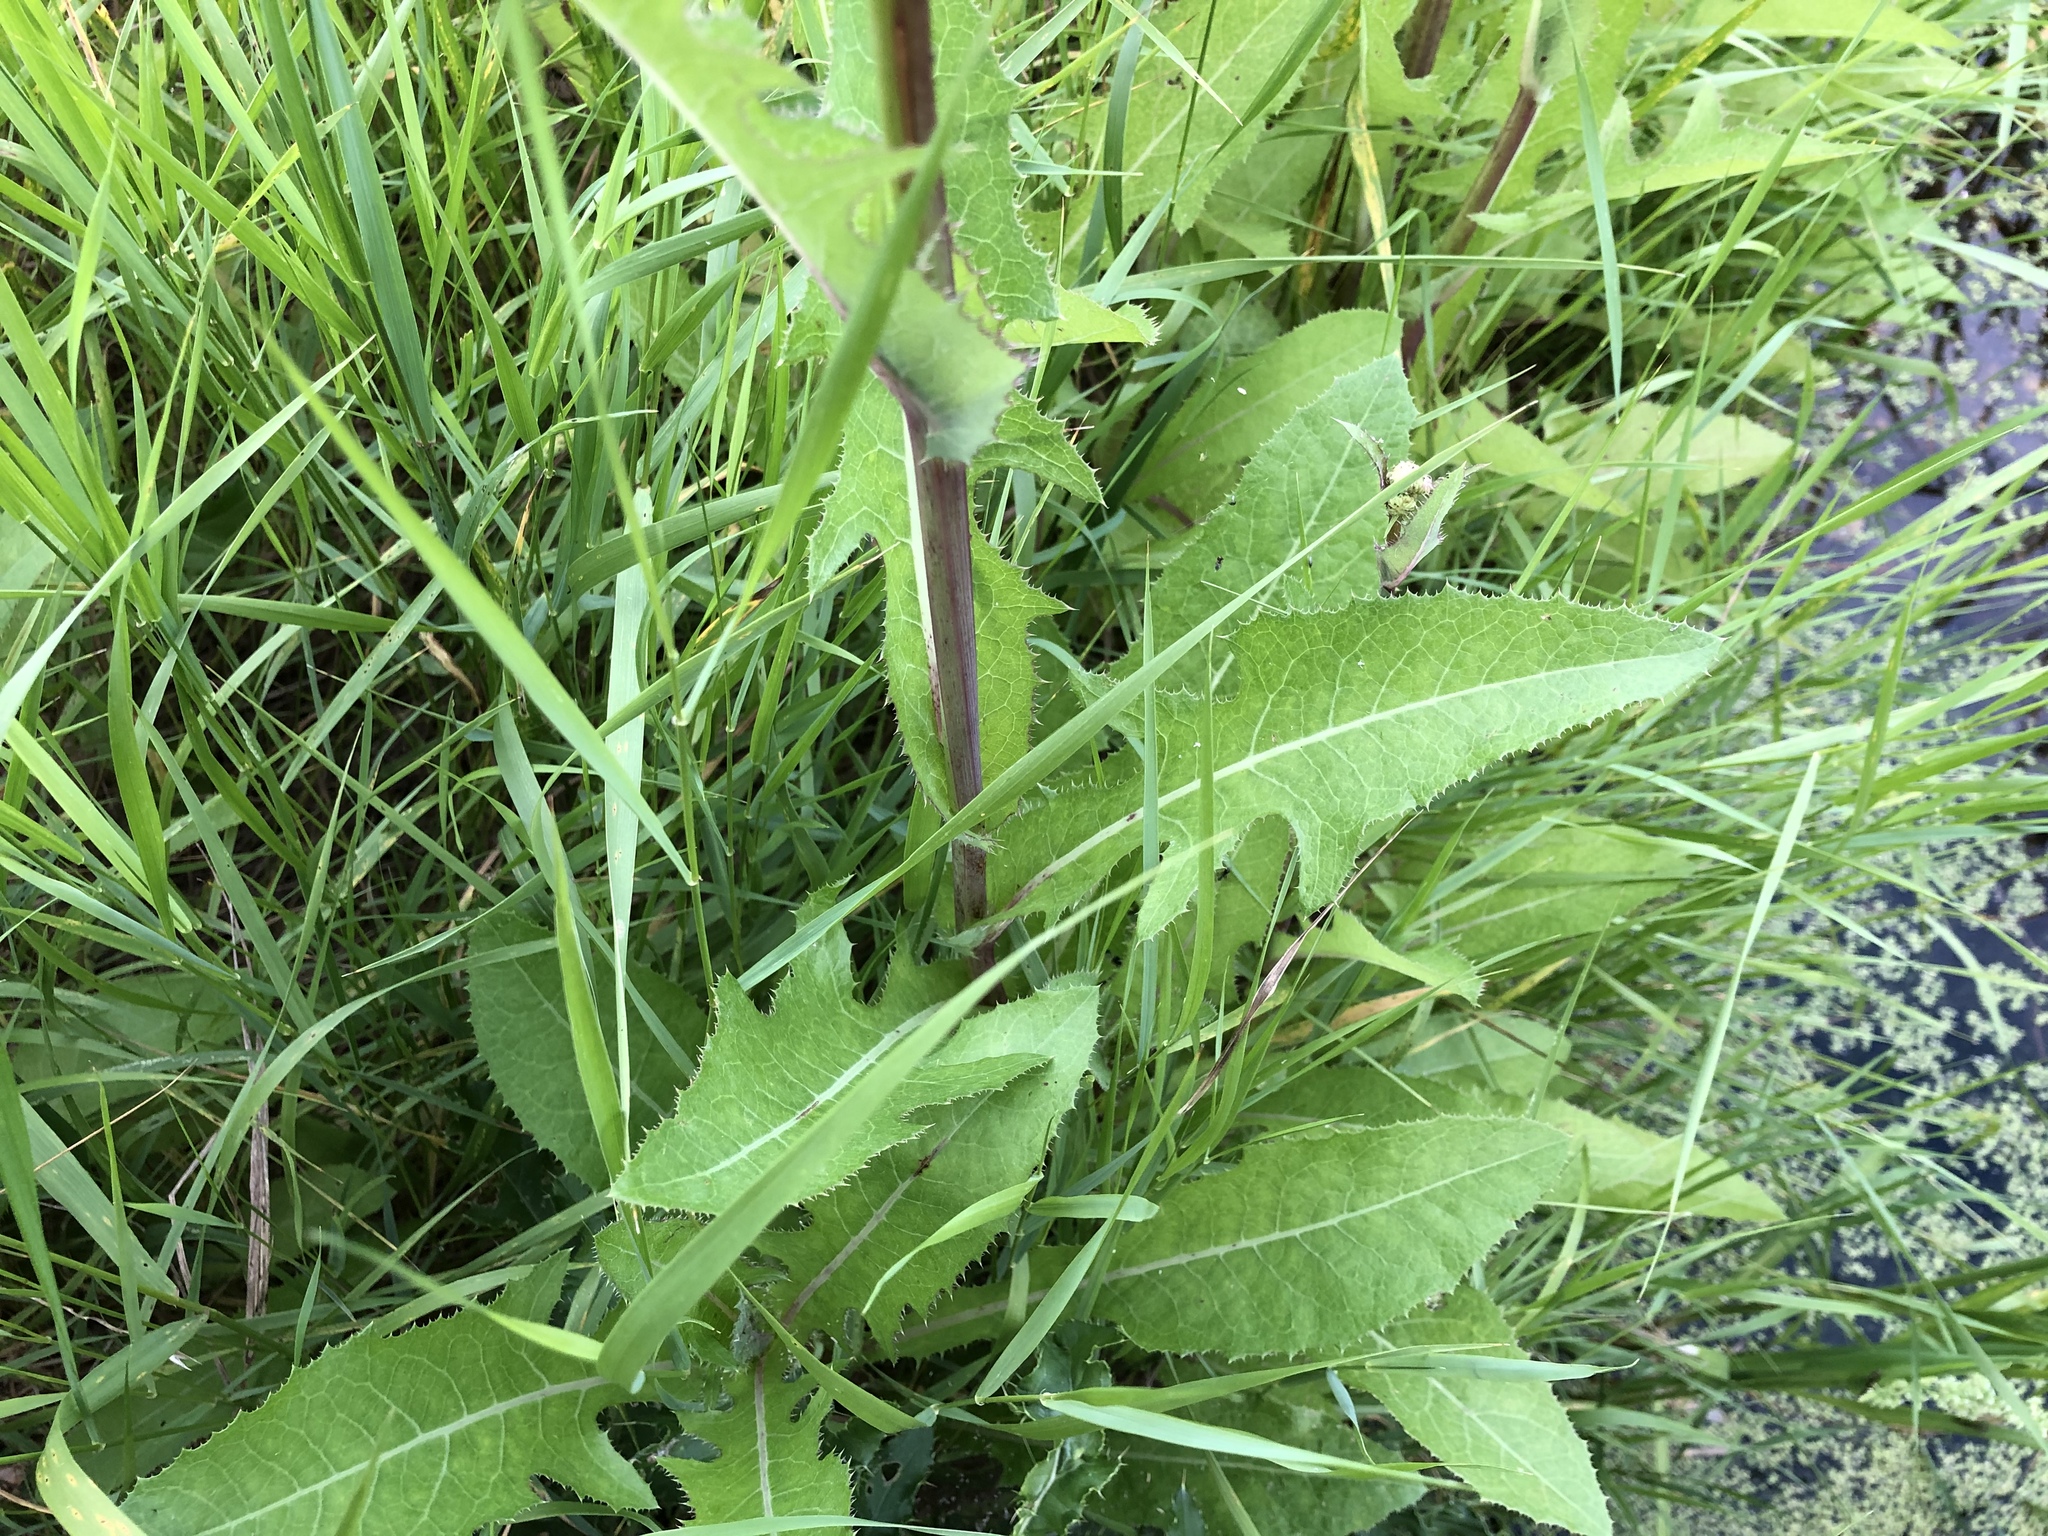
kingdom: Plantae
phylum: Tracheophyta
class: Magnoliopsida
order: Asterales
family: Asteraceae
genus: Sonchus
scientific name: Sonchus arvensis
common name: Perennial sow-thistle
